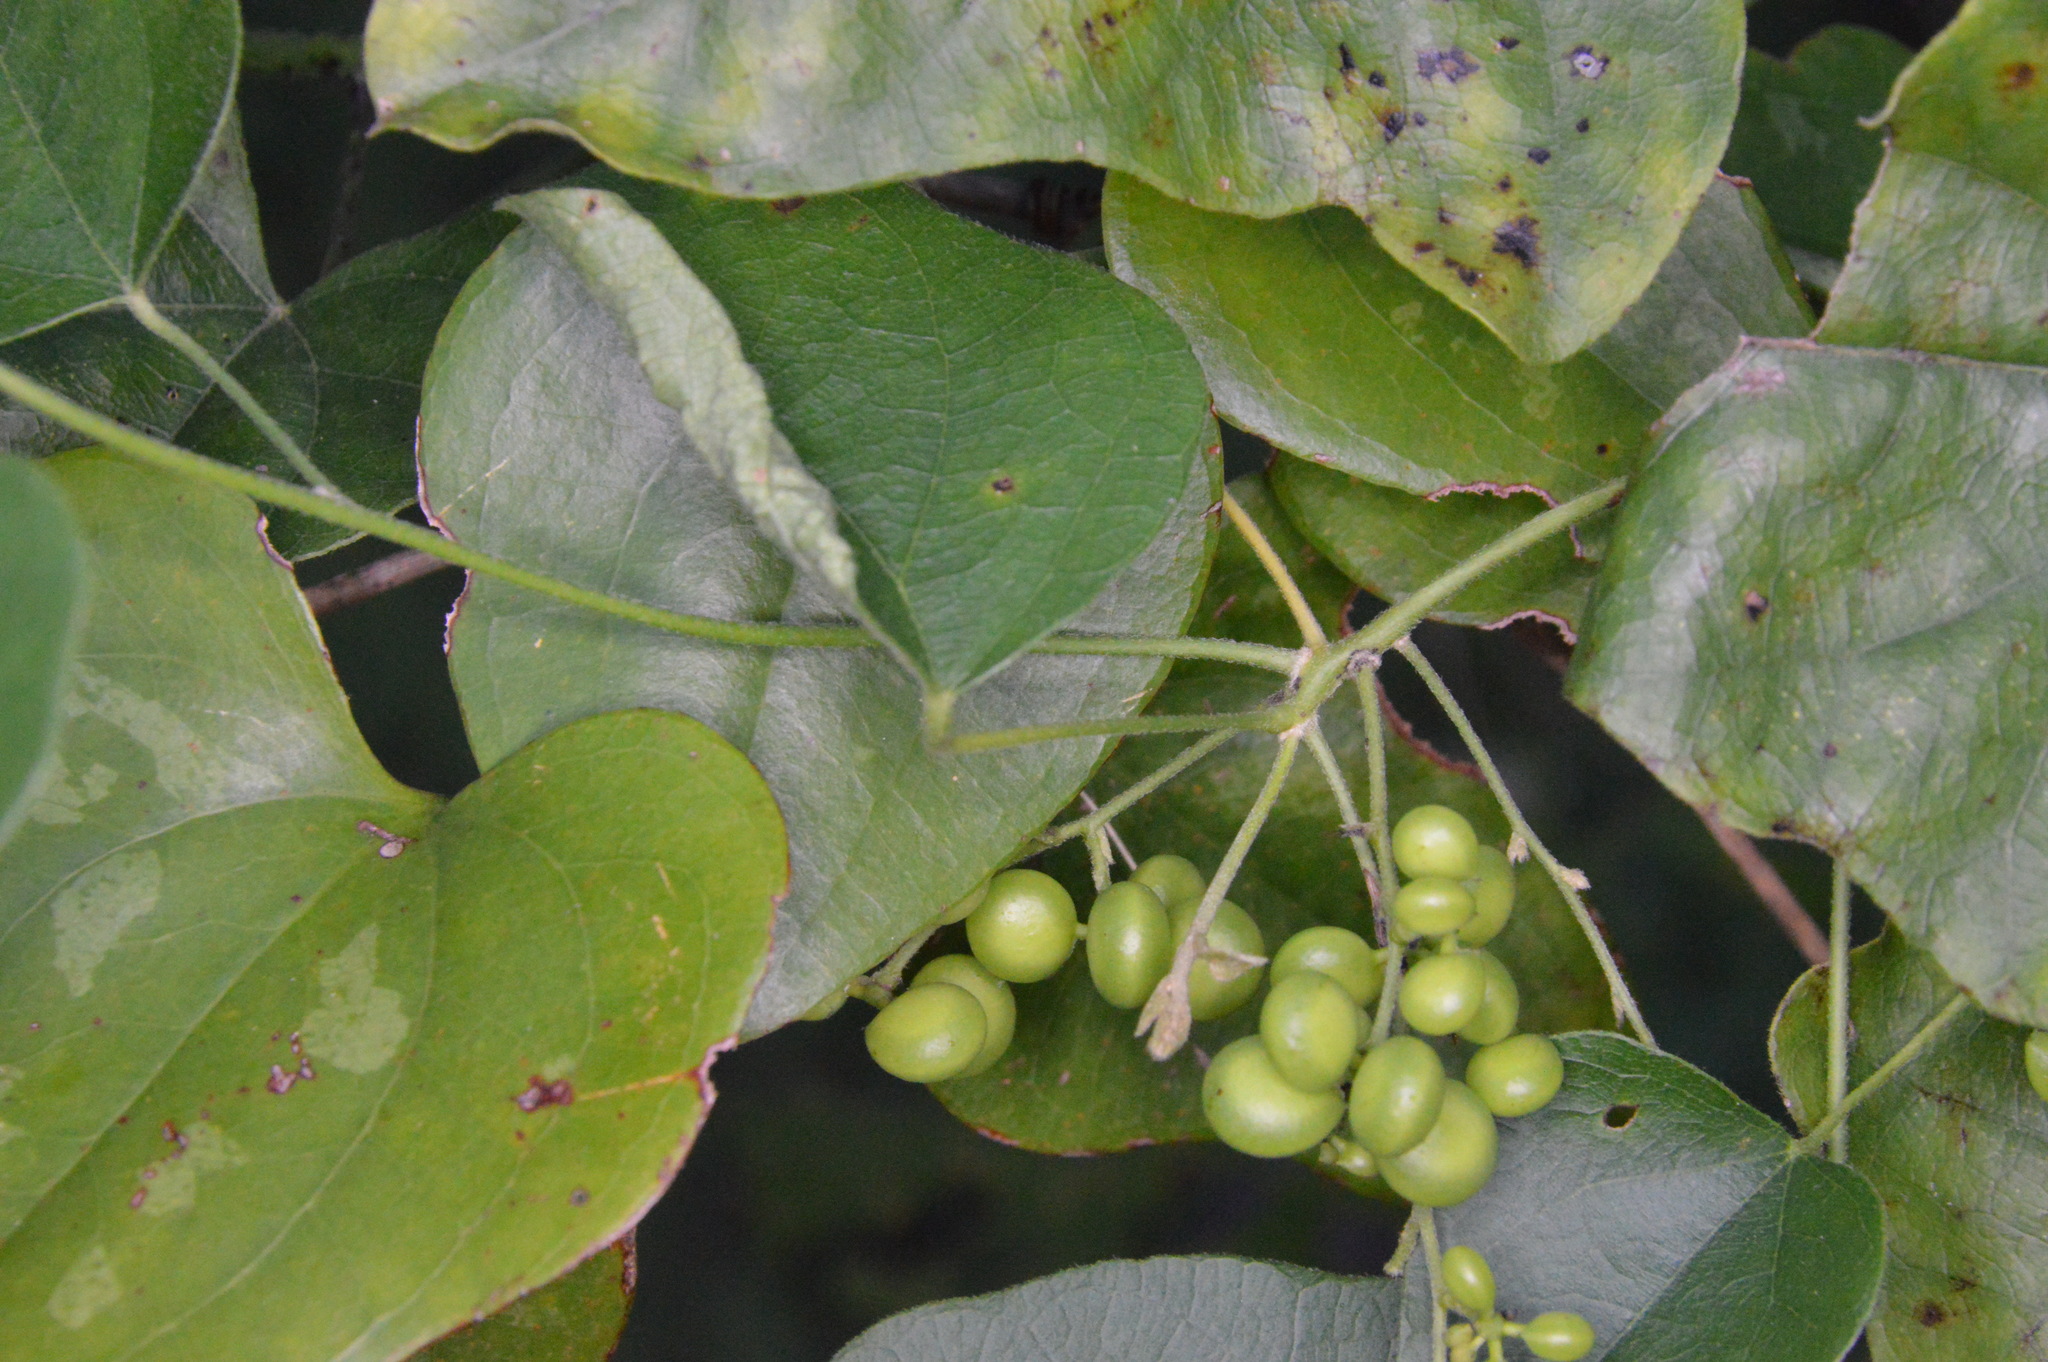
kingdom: Plantae
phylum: Tracheophyta
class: Magnoliopsida
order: Ranunculales
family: Menispermaceae
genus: Cocculus
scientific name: Cocculus carolinus
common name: Carolina moonseed
